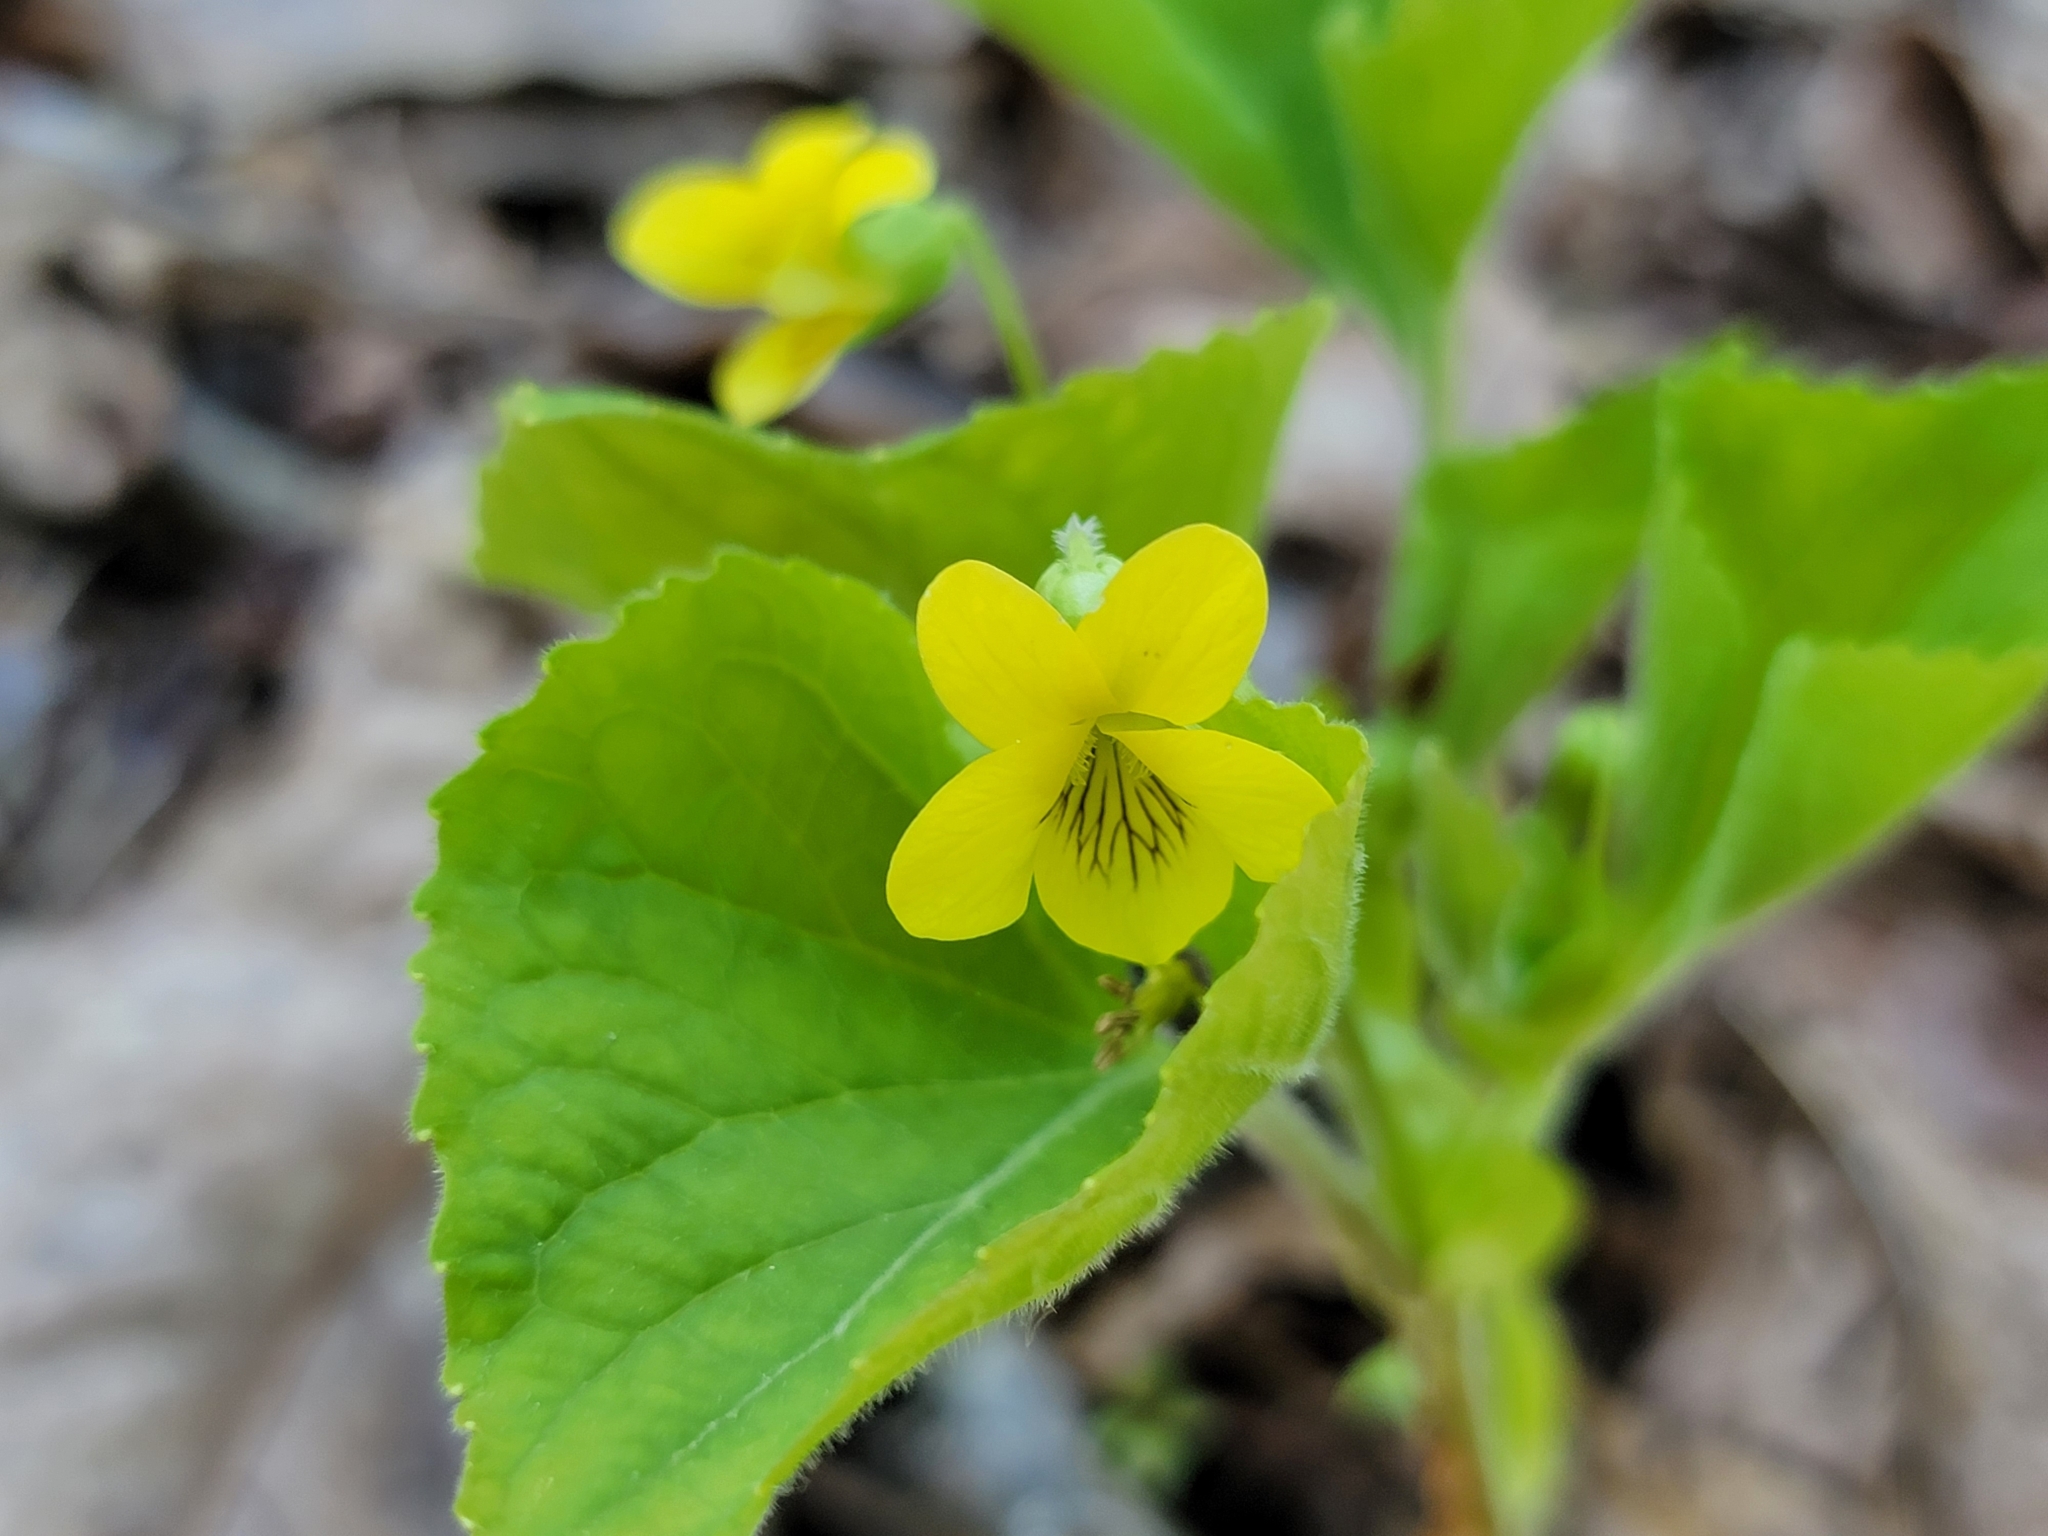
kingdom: Plantae
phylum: Tracheophyta
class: Magnoliopsida
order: Malpighiales
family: Violaceae
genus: Viola
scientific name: Viola eriocarpa
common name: Smooth yellow violet
